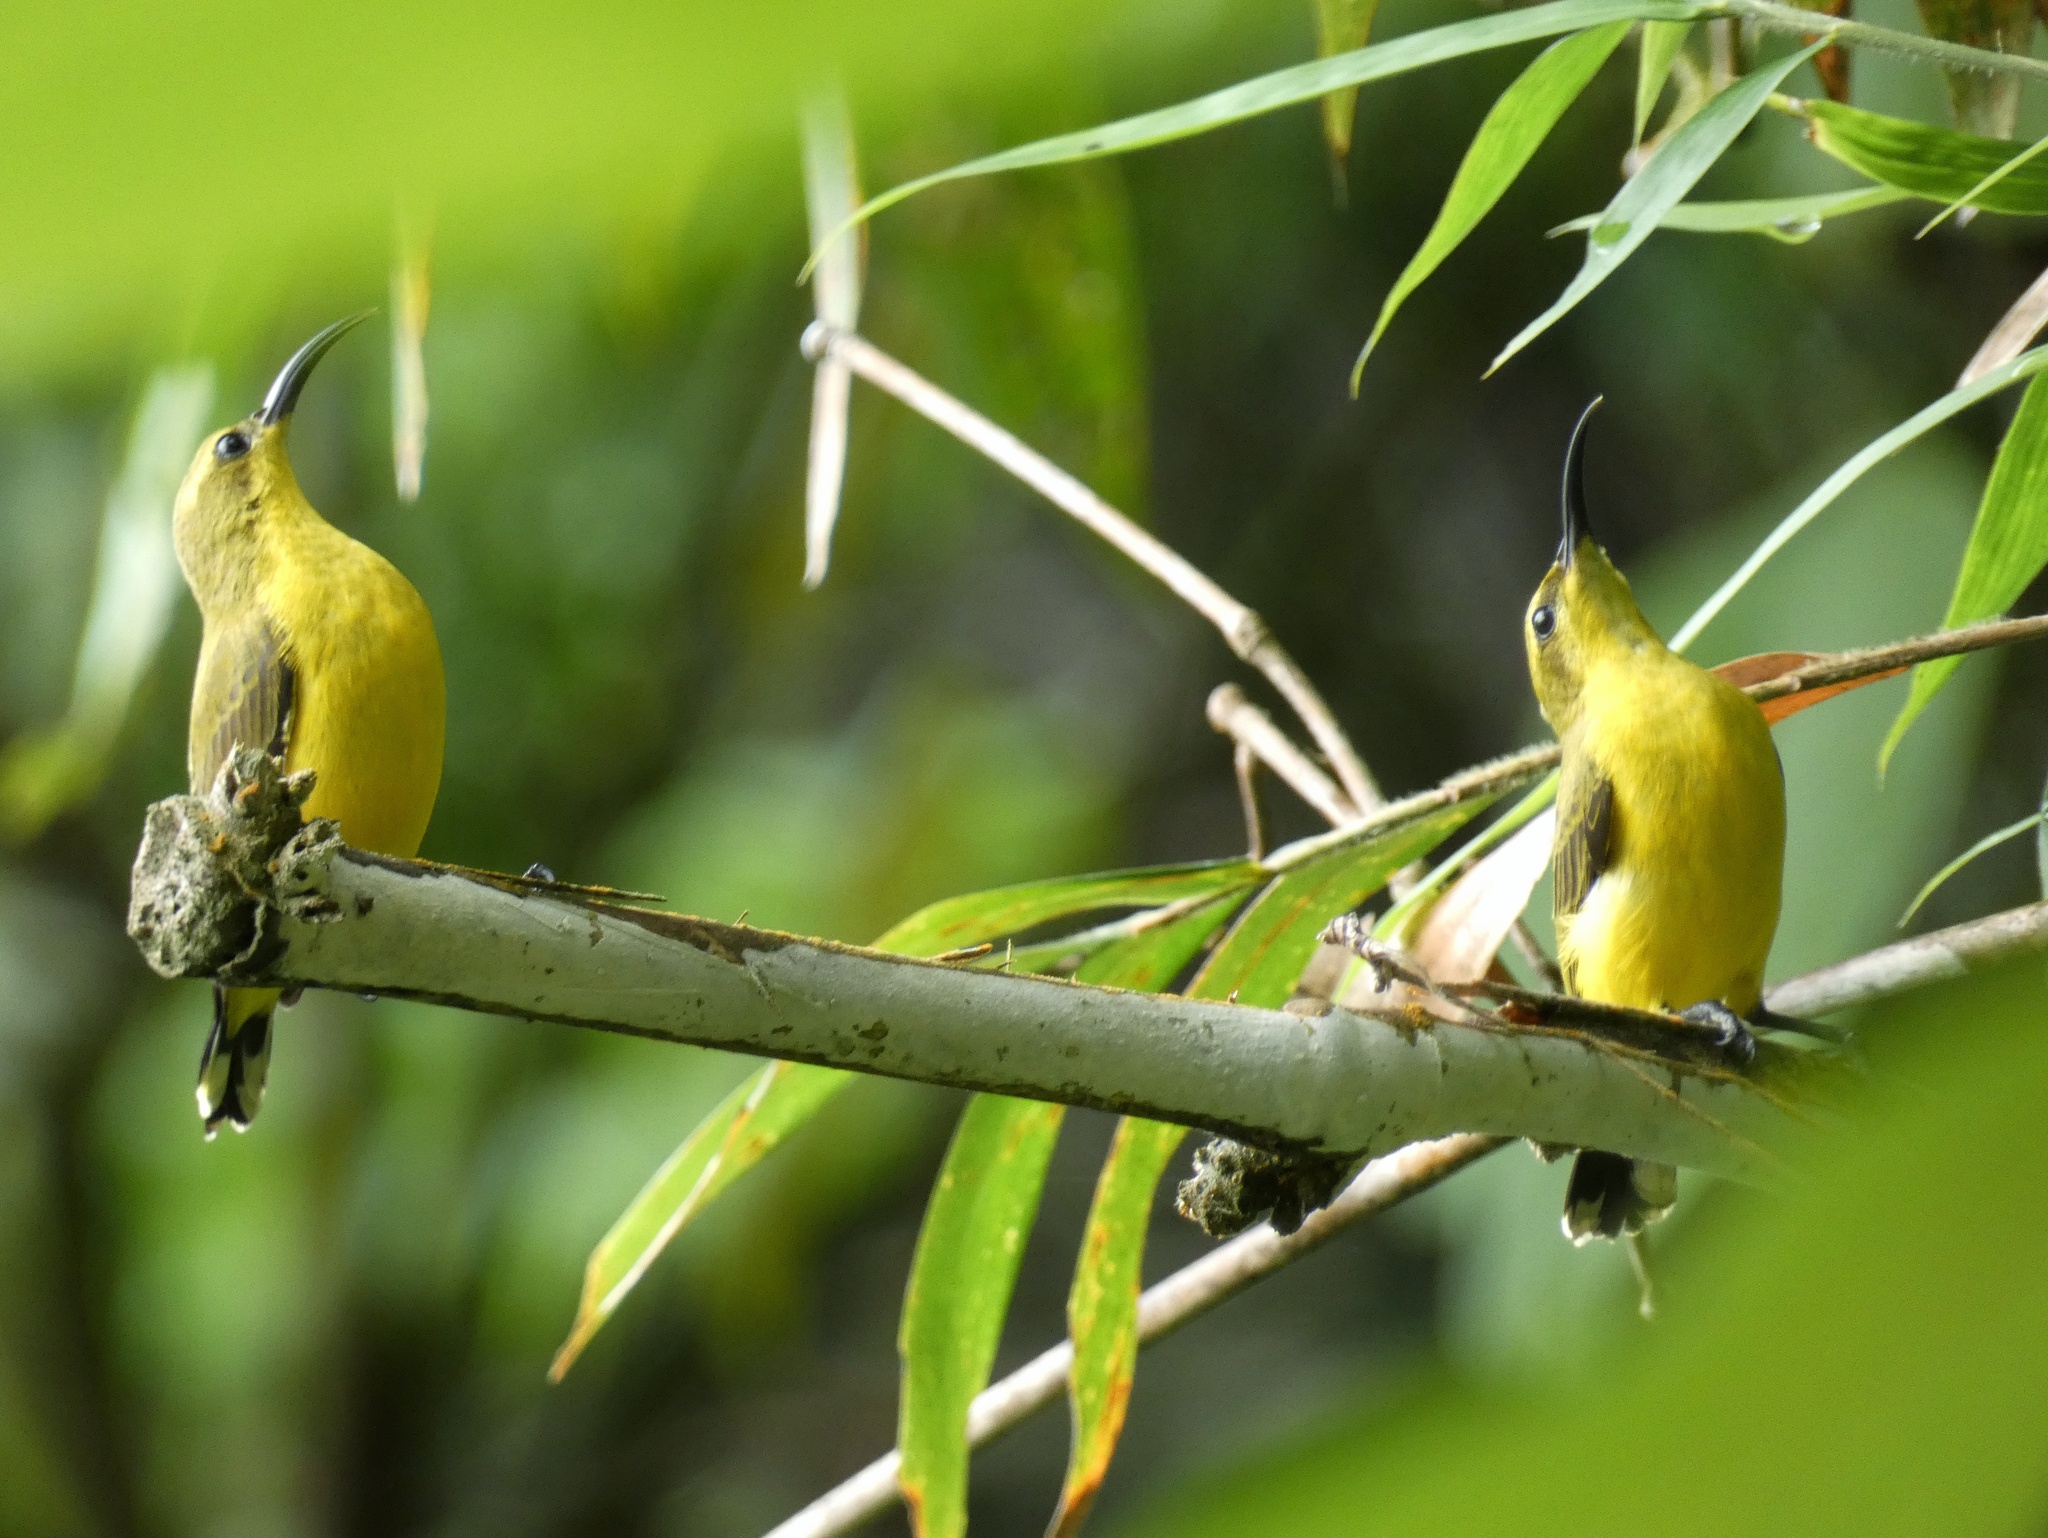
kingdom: Animalia
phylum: Chordata
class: Aves
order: Passeriformes
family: Nectariniidae
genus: Cinnyris
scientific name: Cinnyris
